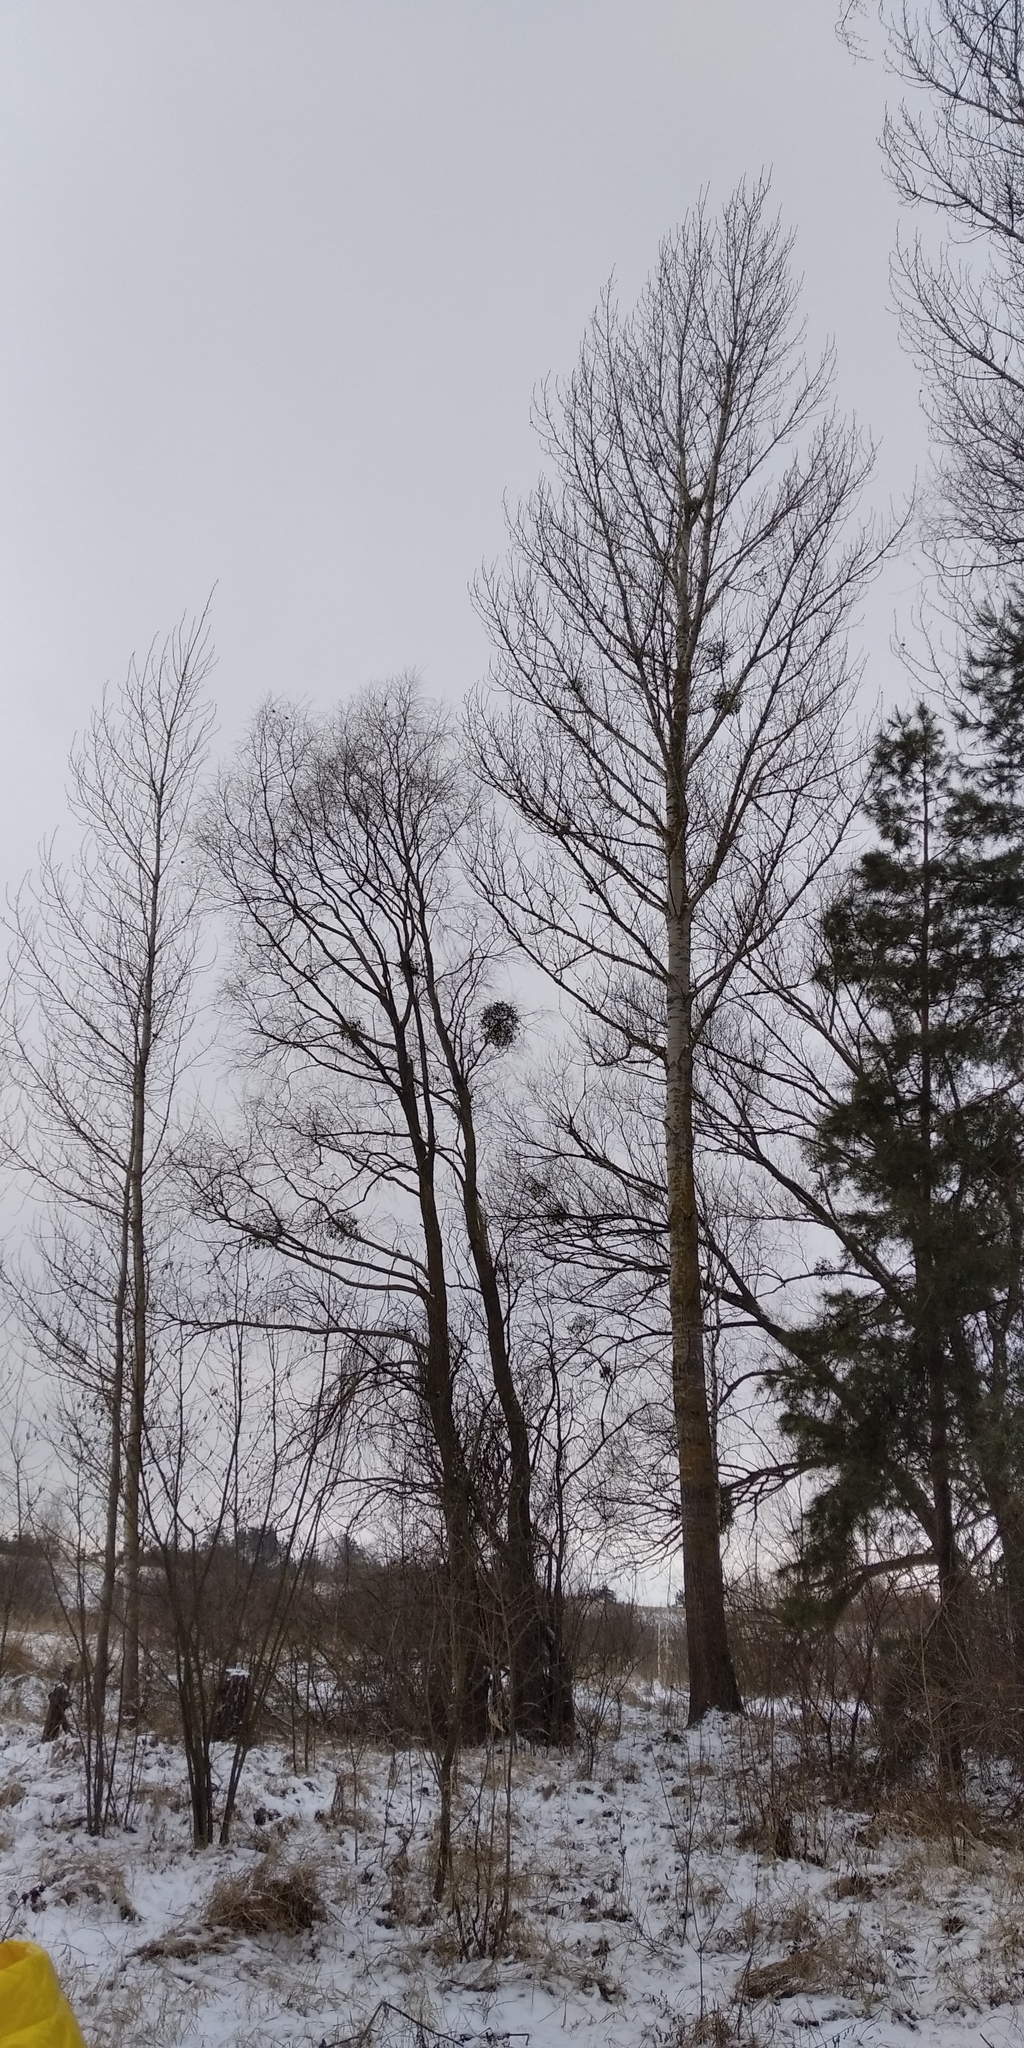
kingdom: Plantae
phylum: Tracheophyta
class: Magnoliopsida
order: Santalales
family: Viscaceae
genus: Viscum
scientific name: Viscum album
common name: Mistletoe
